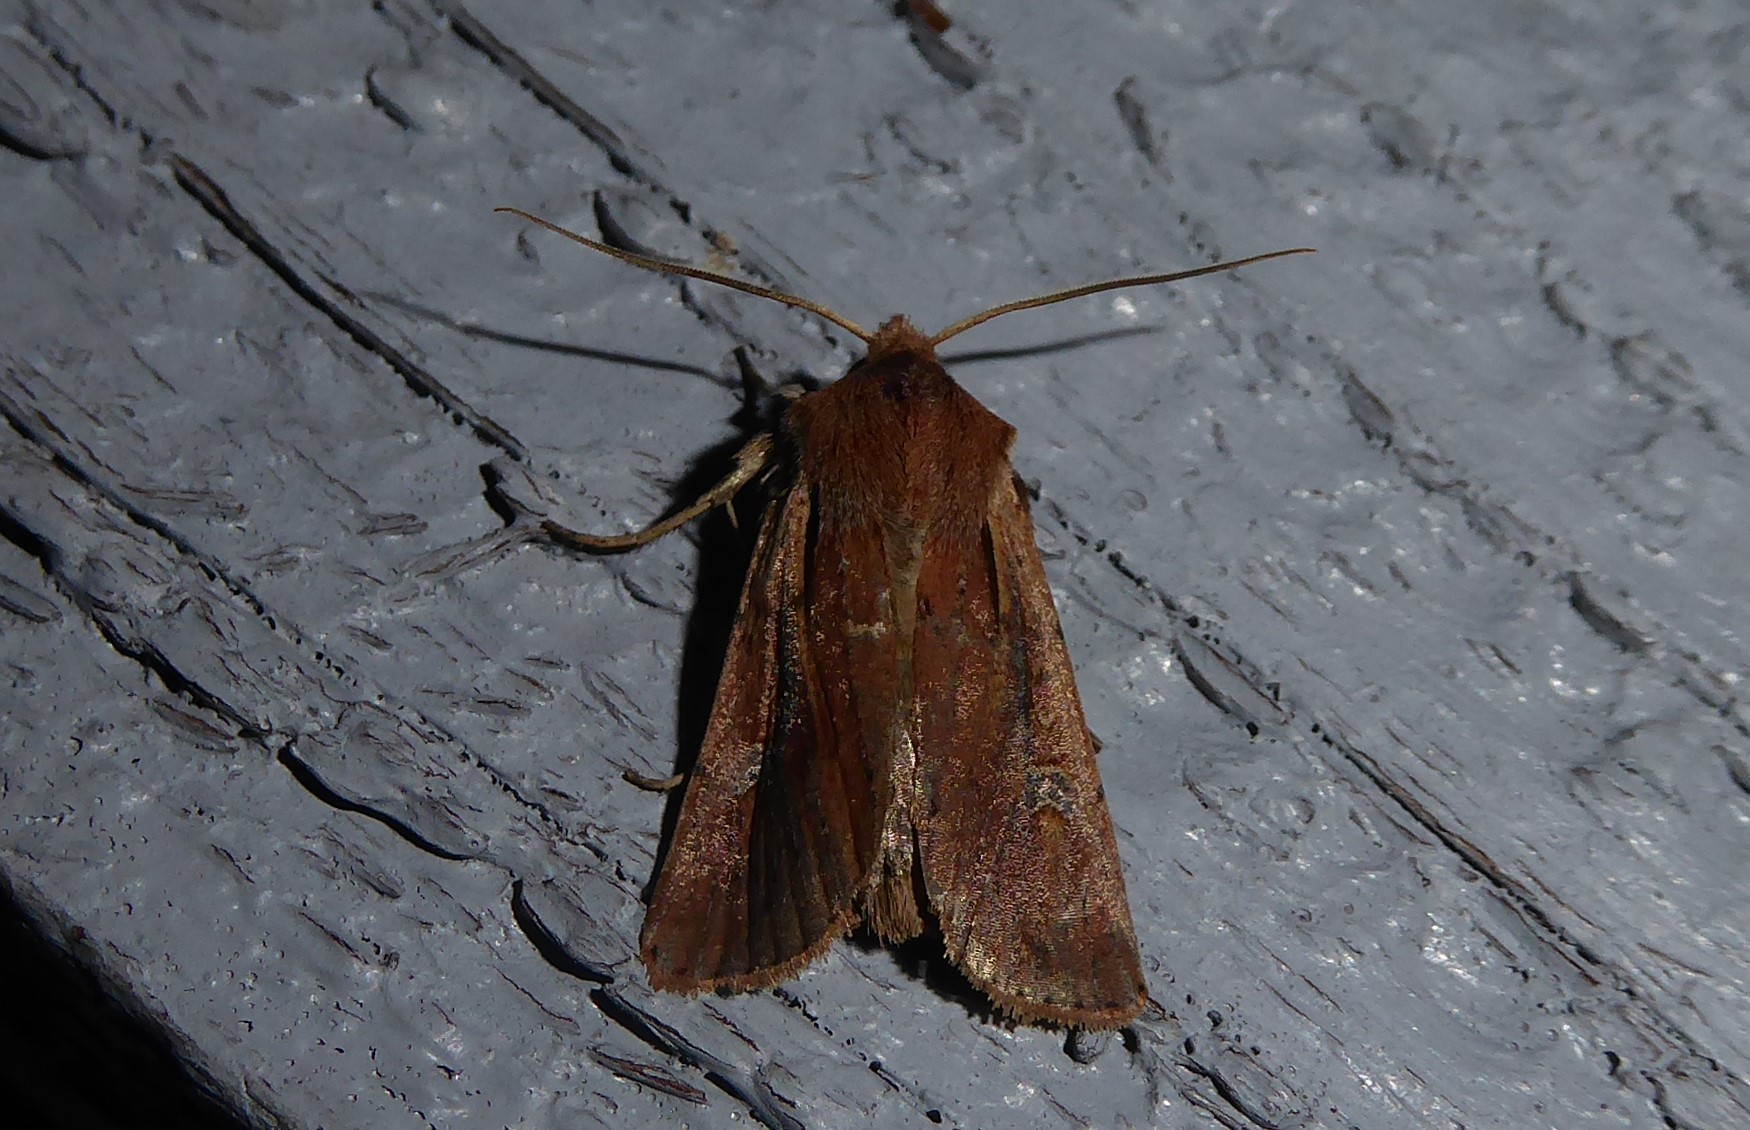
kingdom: Animalia
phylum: Arthropoda
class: Insecta
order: Lepidoptera
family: Noctuidae
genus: Ichneutica
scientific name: Ichneutica atristriga
